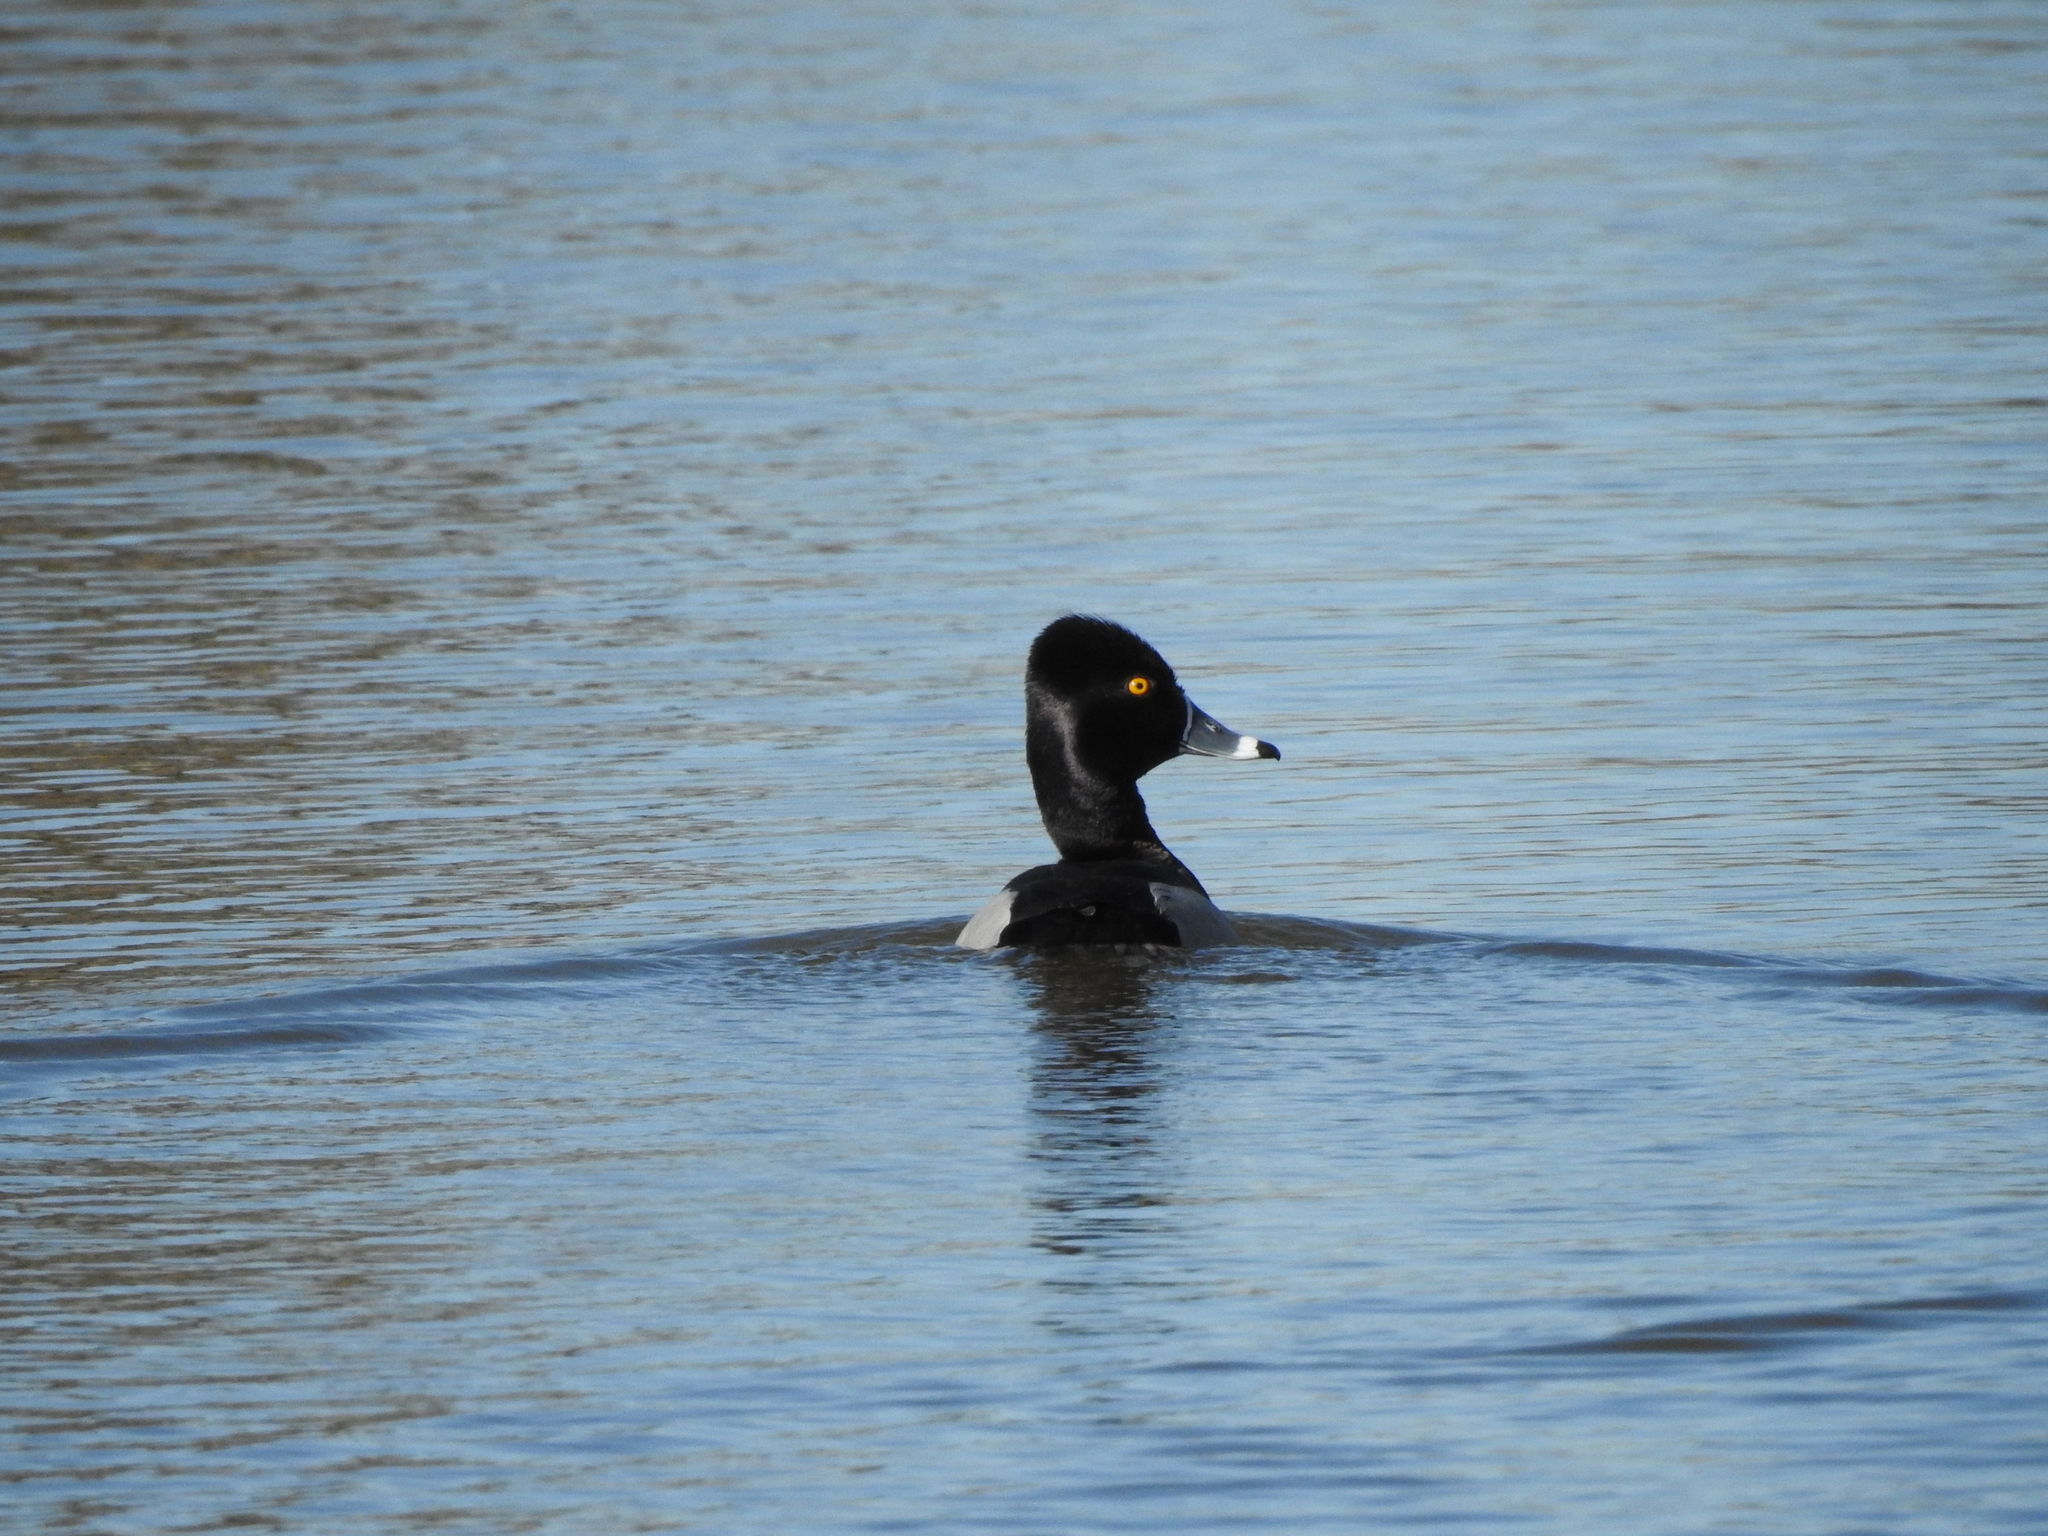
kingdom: Animalia
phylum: Chordata
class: Aves
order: Anseriformes
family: Anatidae
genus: Aythya
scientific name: Aythya collaris
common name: Ring-necked duck
